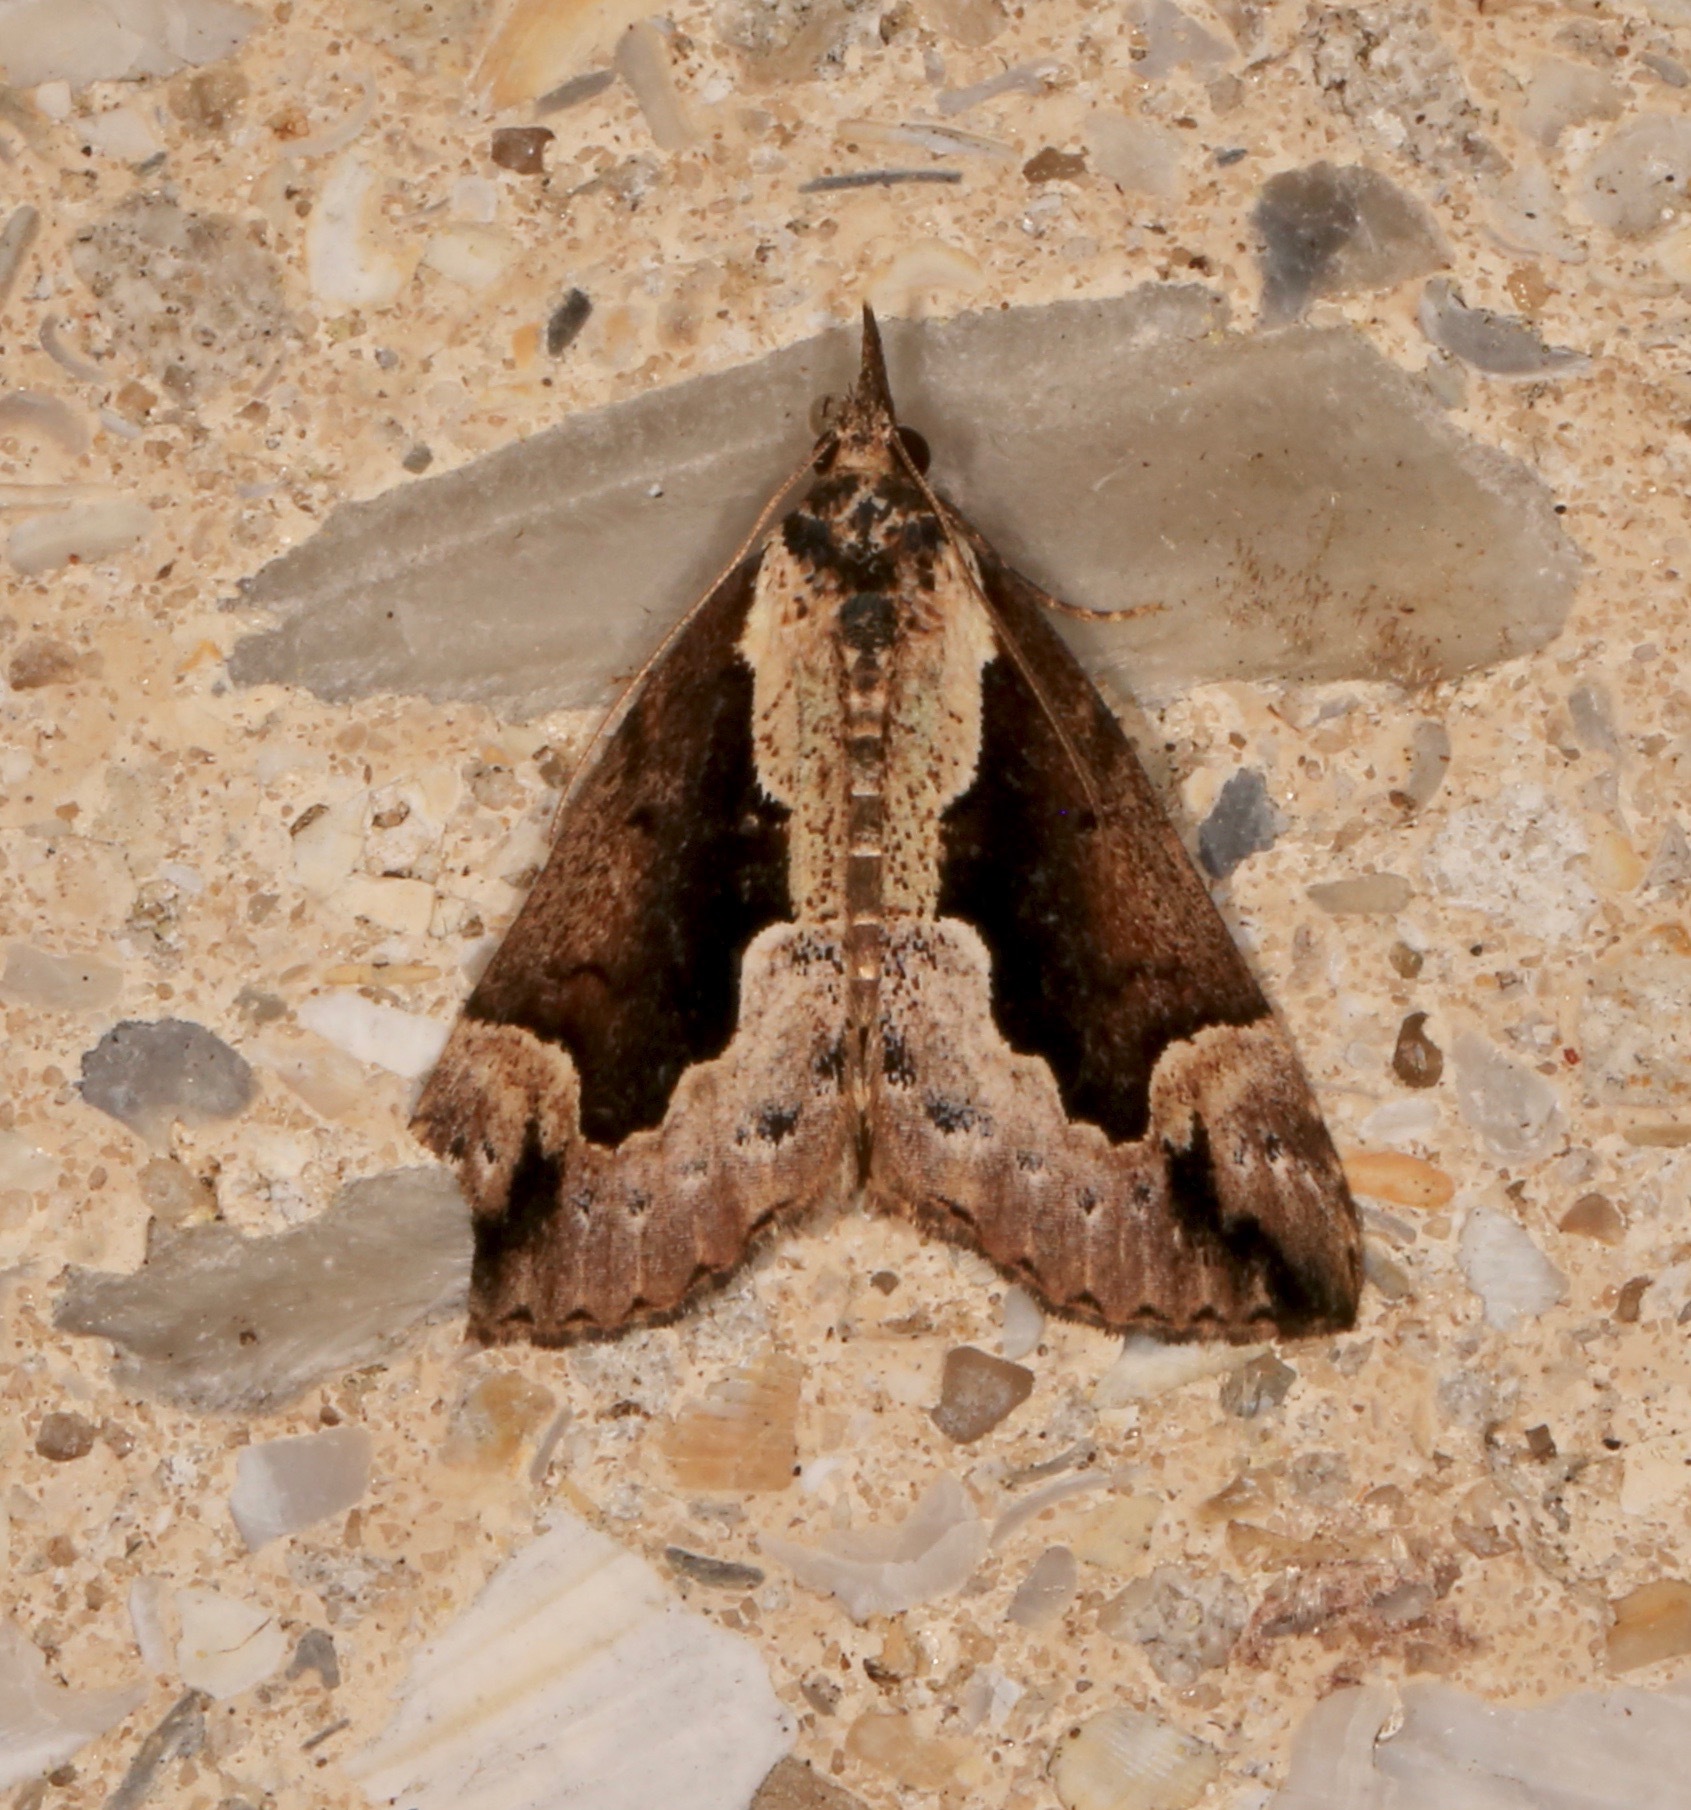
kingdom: Animalia
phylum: Arthropoda
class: Insecta
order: Lepidoptera
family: Erebidae
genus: Hypena
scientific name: Hypena baltimoralis
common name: Baltimore snout
